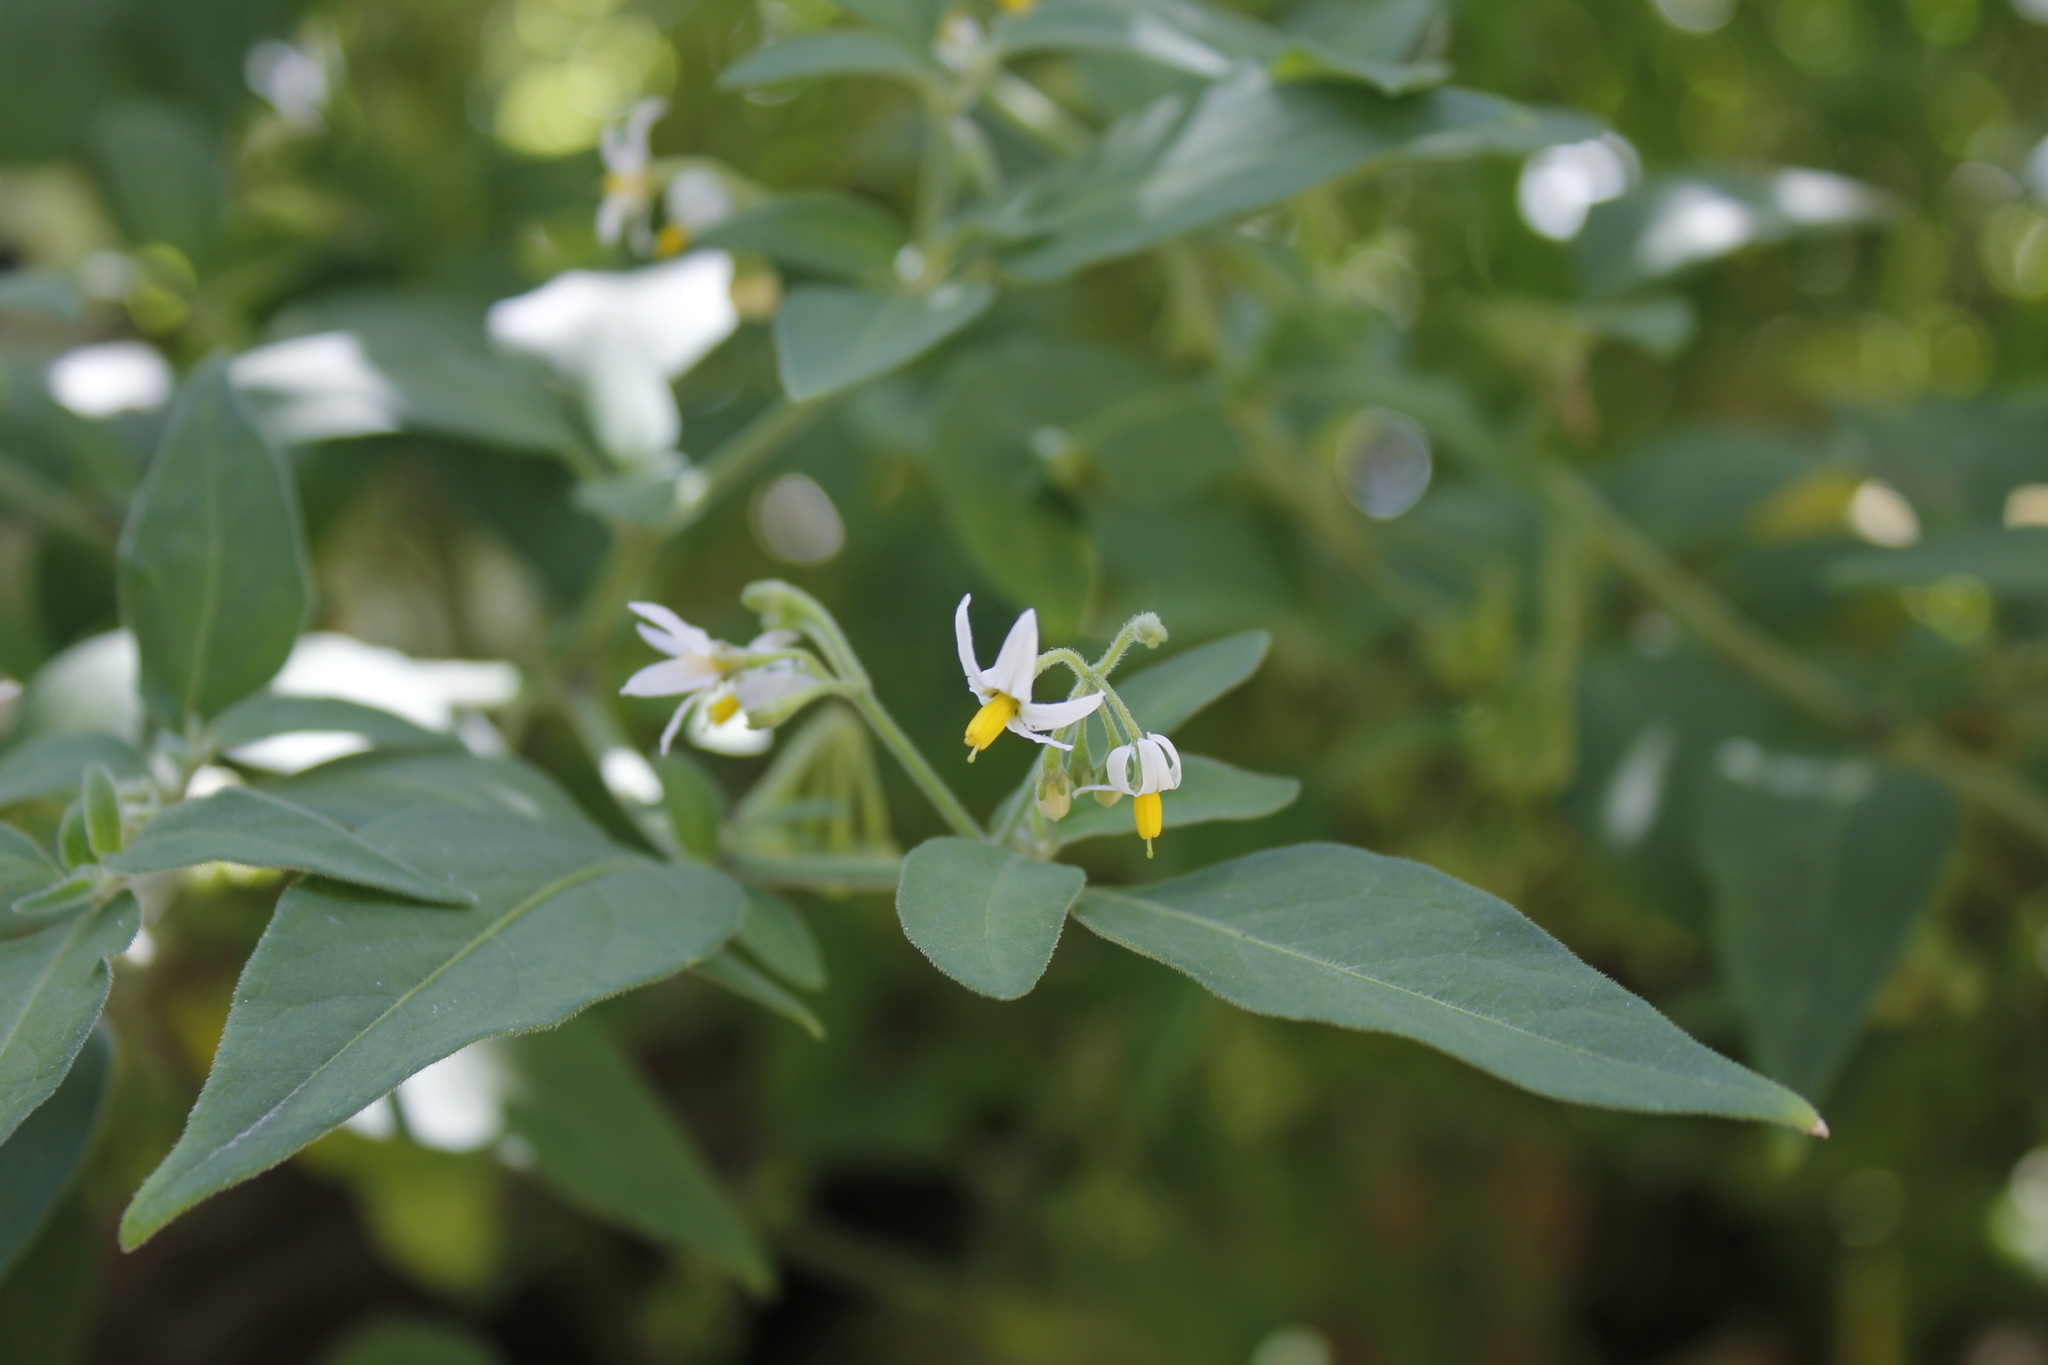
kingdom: Plantae
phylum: Tracheophyta
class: Magnoliopsida
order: Solanales
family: Solanaceae
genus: Solanum
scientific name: Solanum chenopodioides
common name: Tall nightshade
